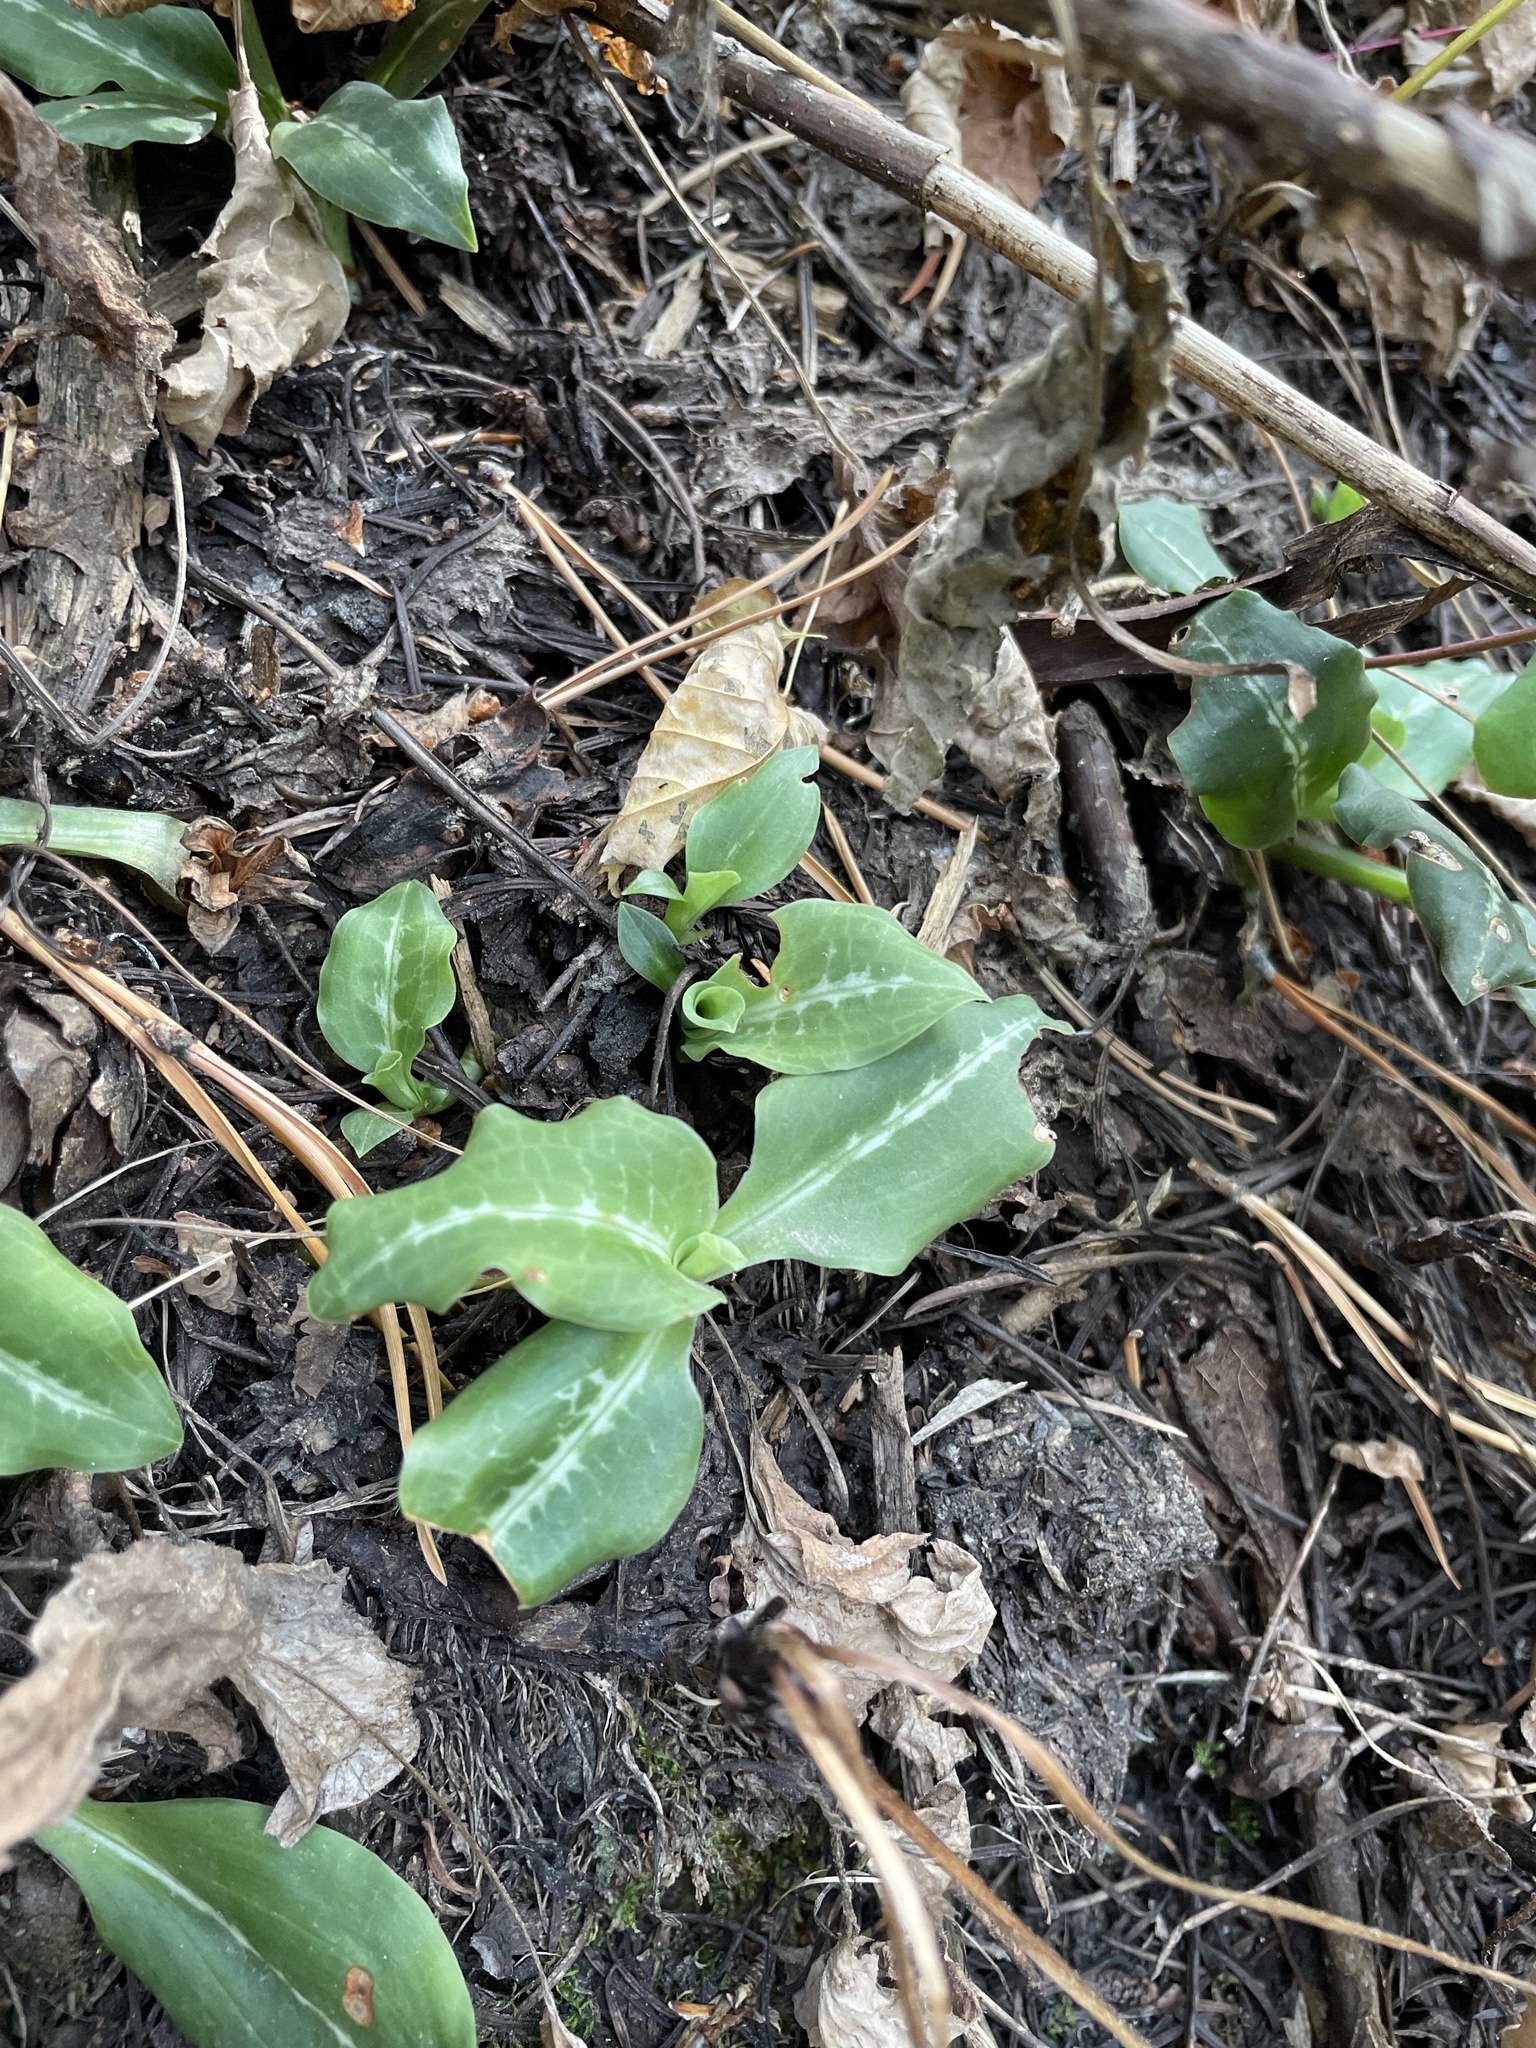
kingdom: Plantae
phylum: Tracheophyta
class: Liliopsida
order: Asparagales
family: Orchidaceae
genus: Goodyera
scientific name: Goodyera oblongifolia
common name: Giant rattlesnake-plantain
